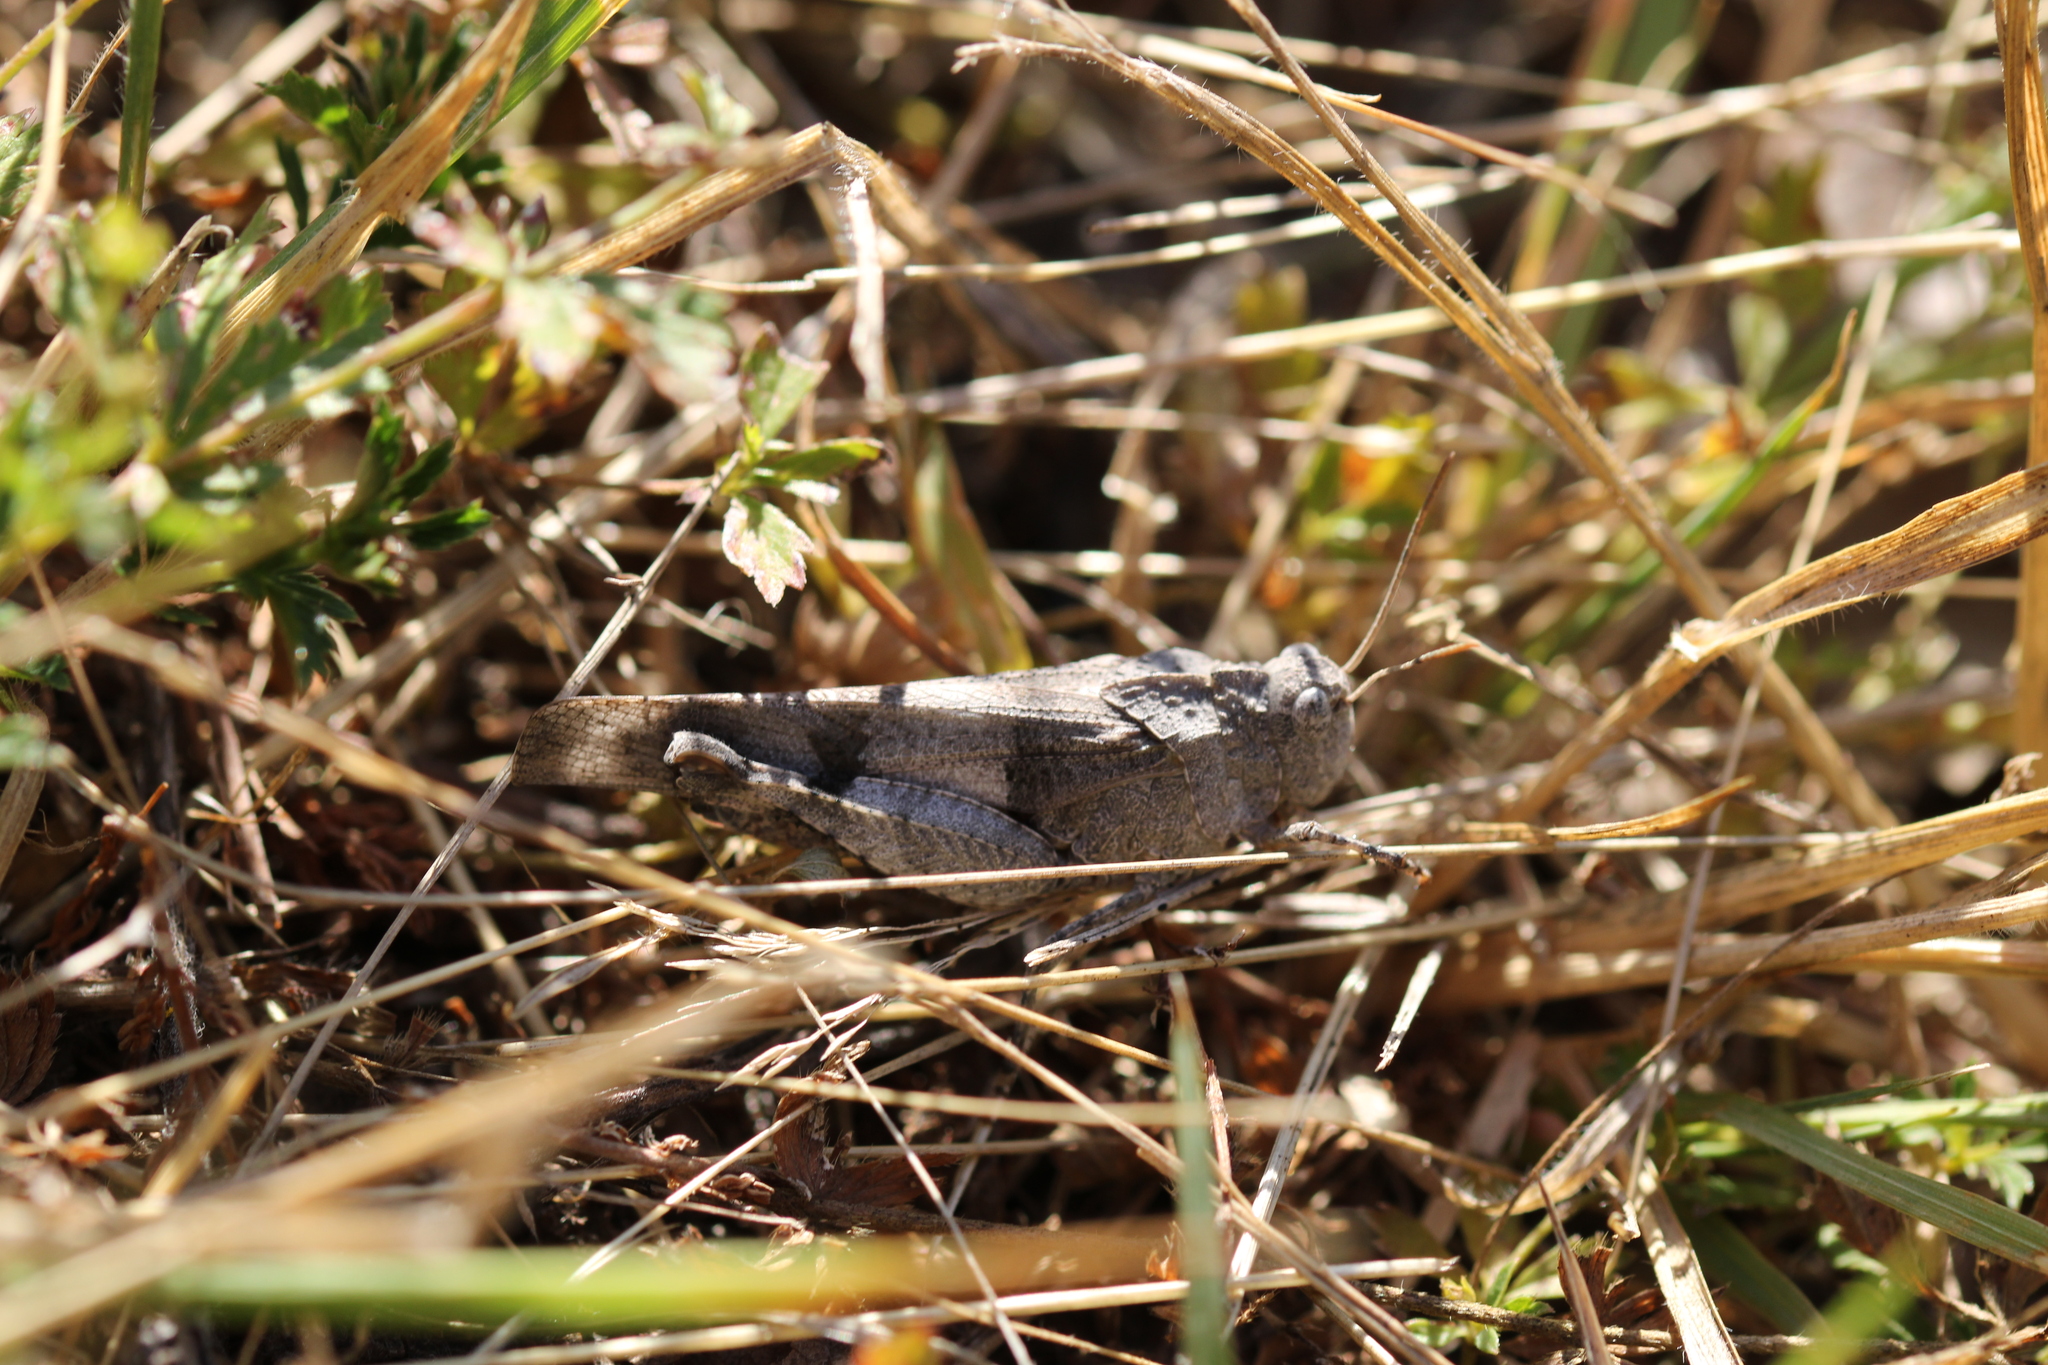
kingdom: Animalia
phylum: Arthropoda
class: Insecta
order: Orthoptera
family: Acrididae
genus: Oedipoda
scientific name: Oedipoda caerulescens
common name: Blue-winged grasshopper
